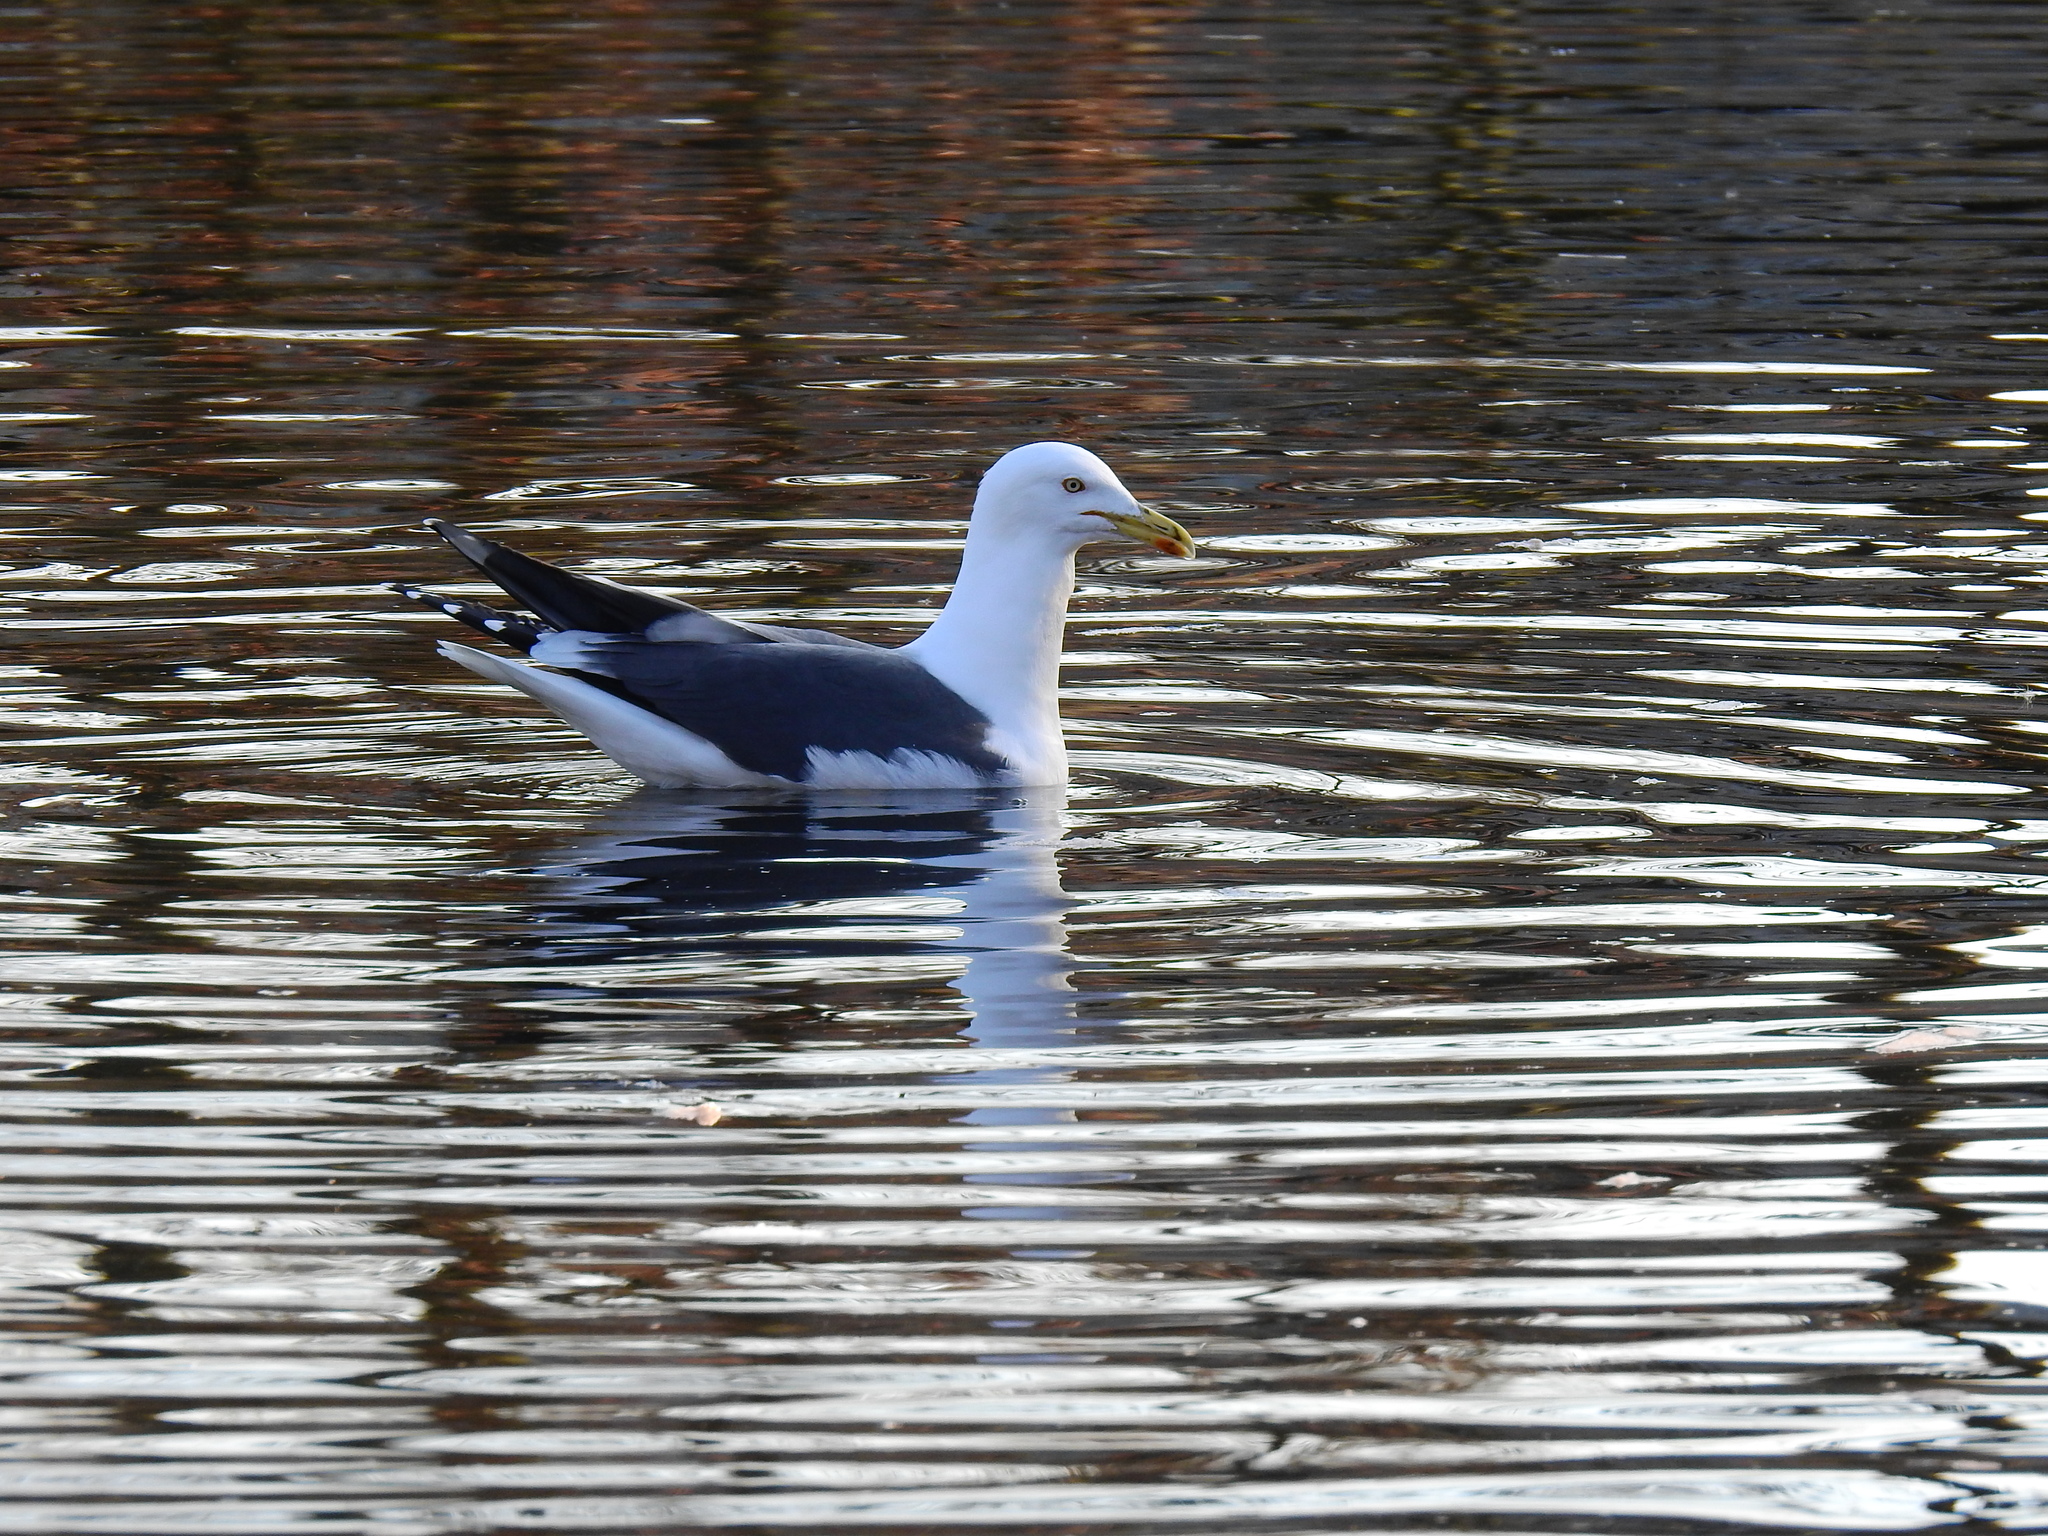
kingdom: Animalia
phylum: Chordata
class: Aves
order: Charadriiformes
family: Laridae
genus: Larus
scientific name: Larus fuscus
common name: Lesser black-backed gull
